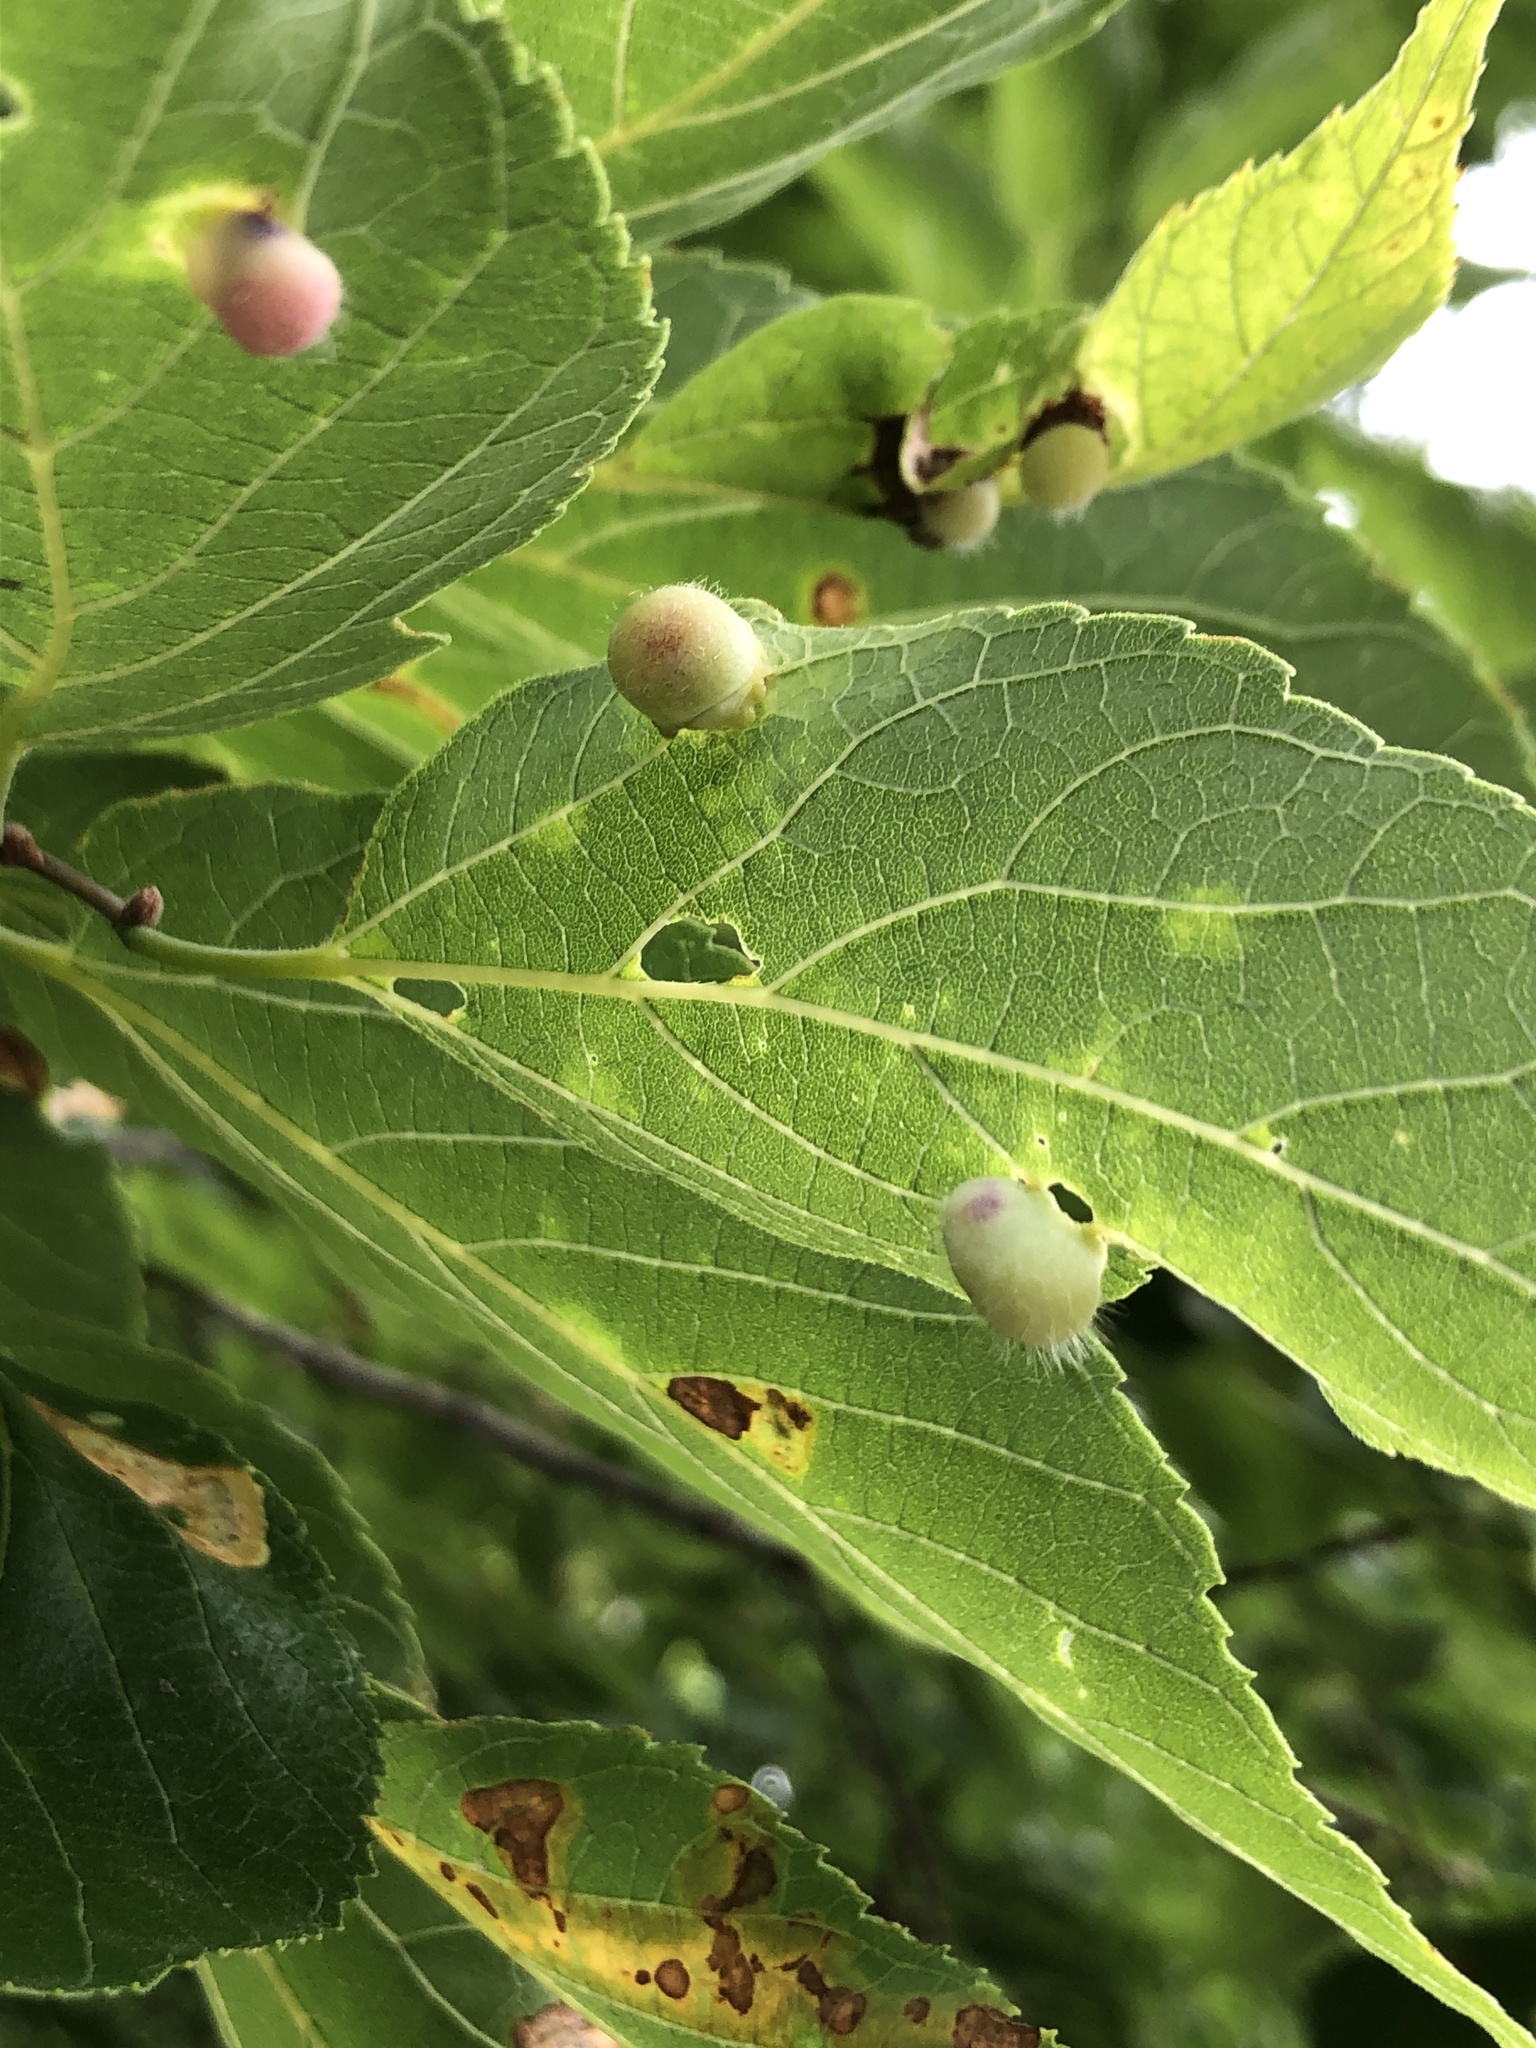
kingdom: Animalia
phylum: Arthropoda
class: Insecta
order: Hemiptera
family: Aphalaridae
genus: Pachypsylla
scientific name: Pachypsylla celtidismamma
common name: Hackberry nipplegall psyllid
